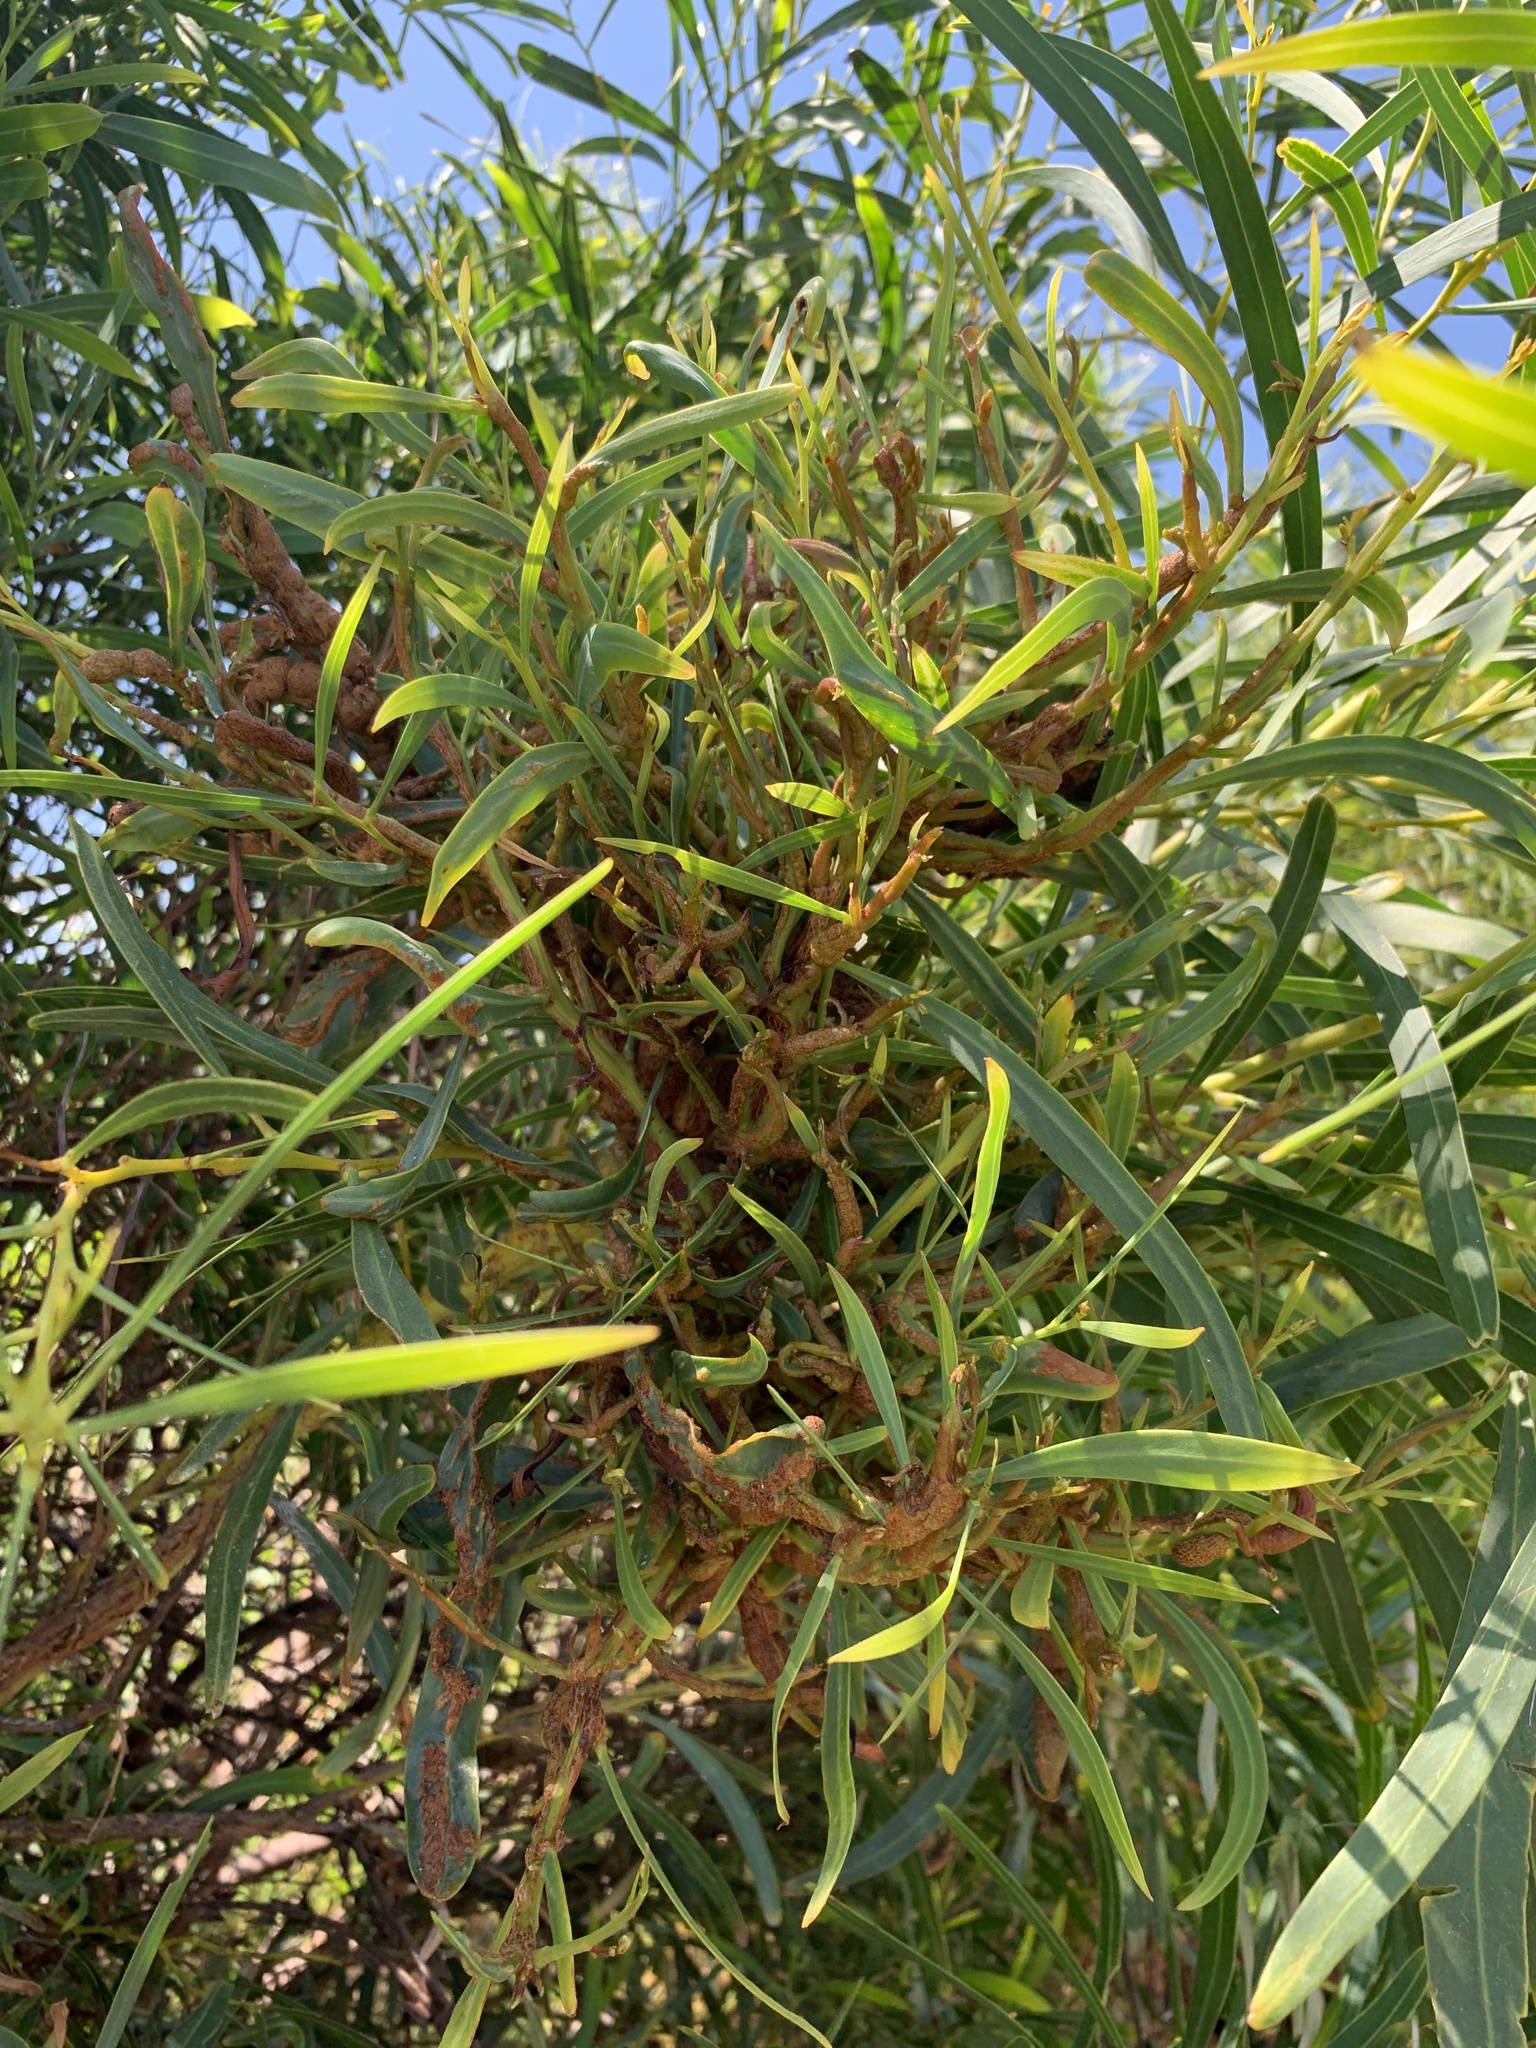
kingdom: Plantae
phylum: Tracheophyta
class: Magnoliopsida
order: Fabales
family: Fabaceae
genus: Acacia
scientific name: Acacia saligna
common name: Orange wattle
